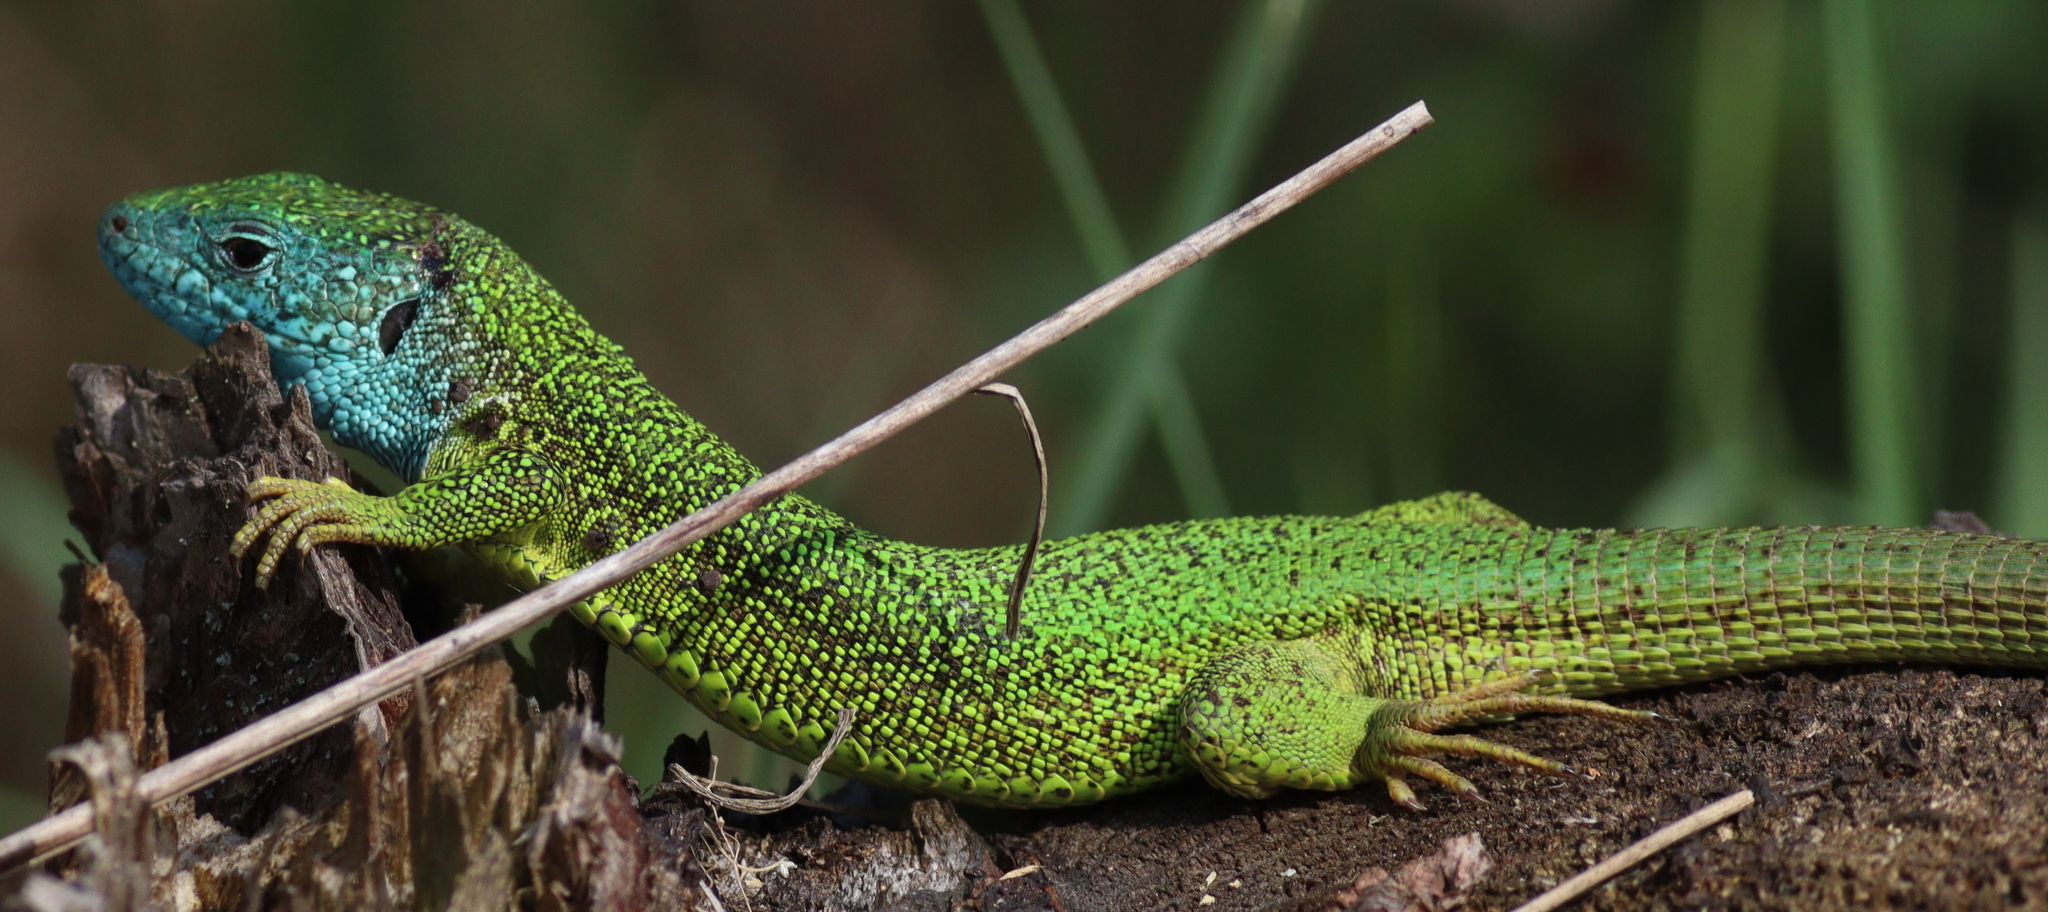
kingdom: Animalia
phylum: Chordata
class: Squamata
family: Lacertidae
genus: Lacerta
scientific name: Lacerta viridis
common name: European green lizard
